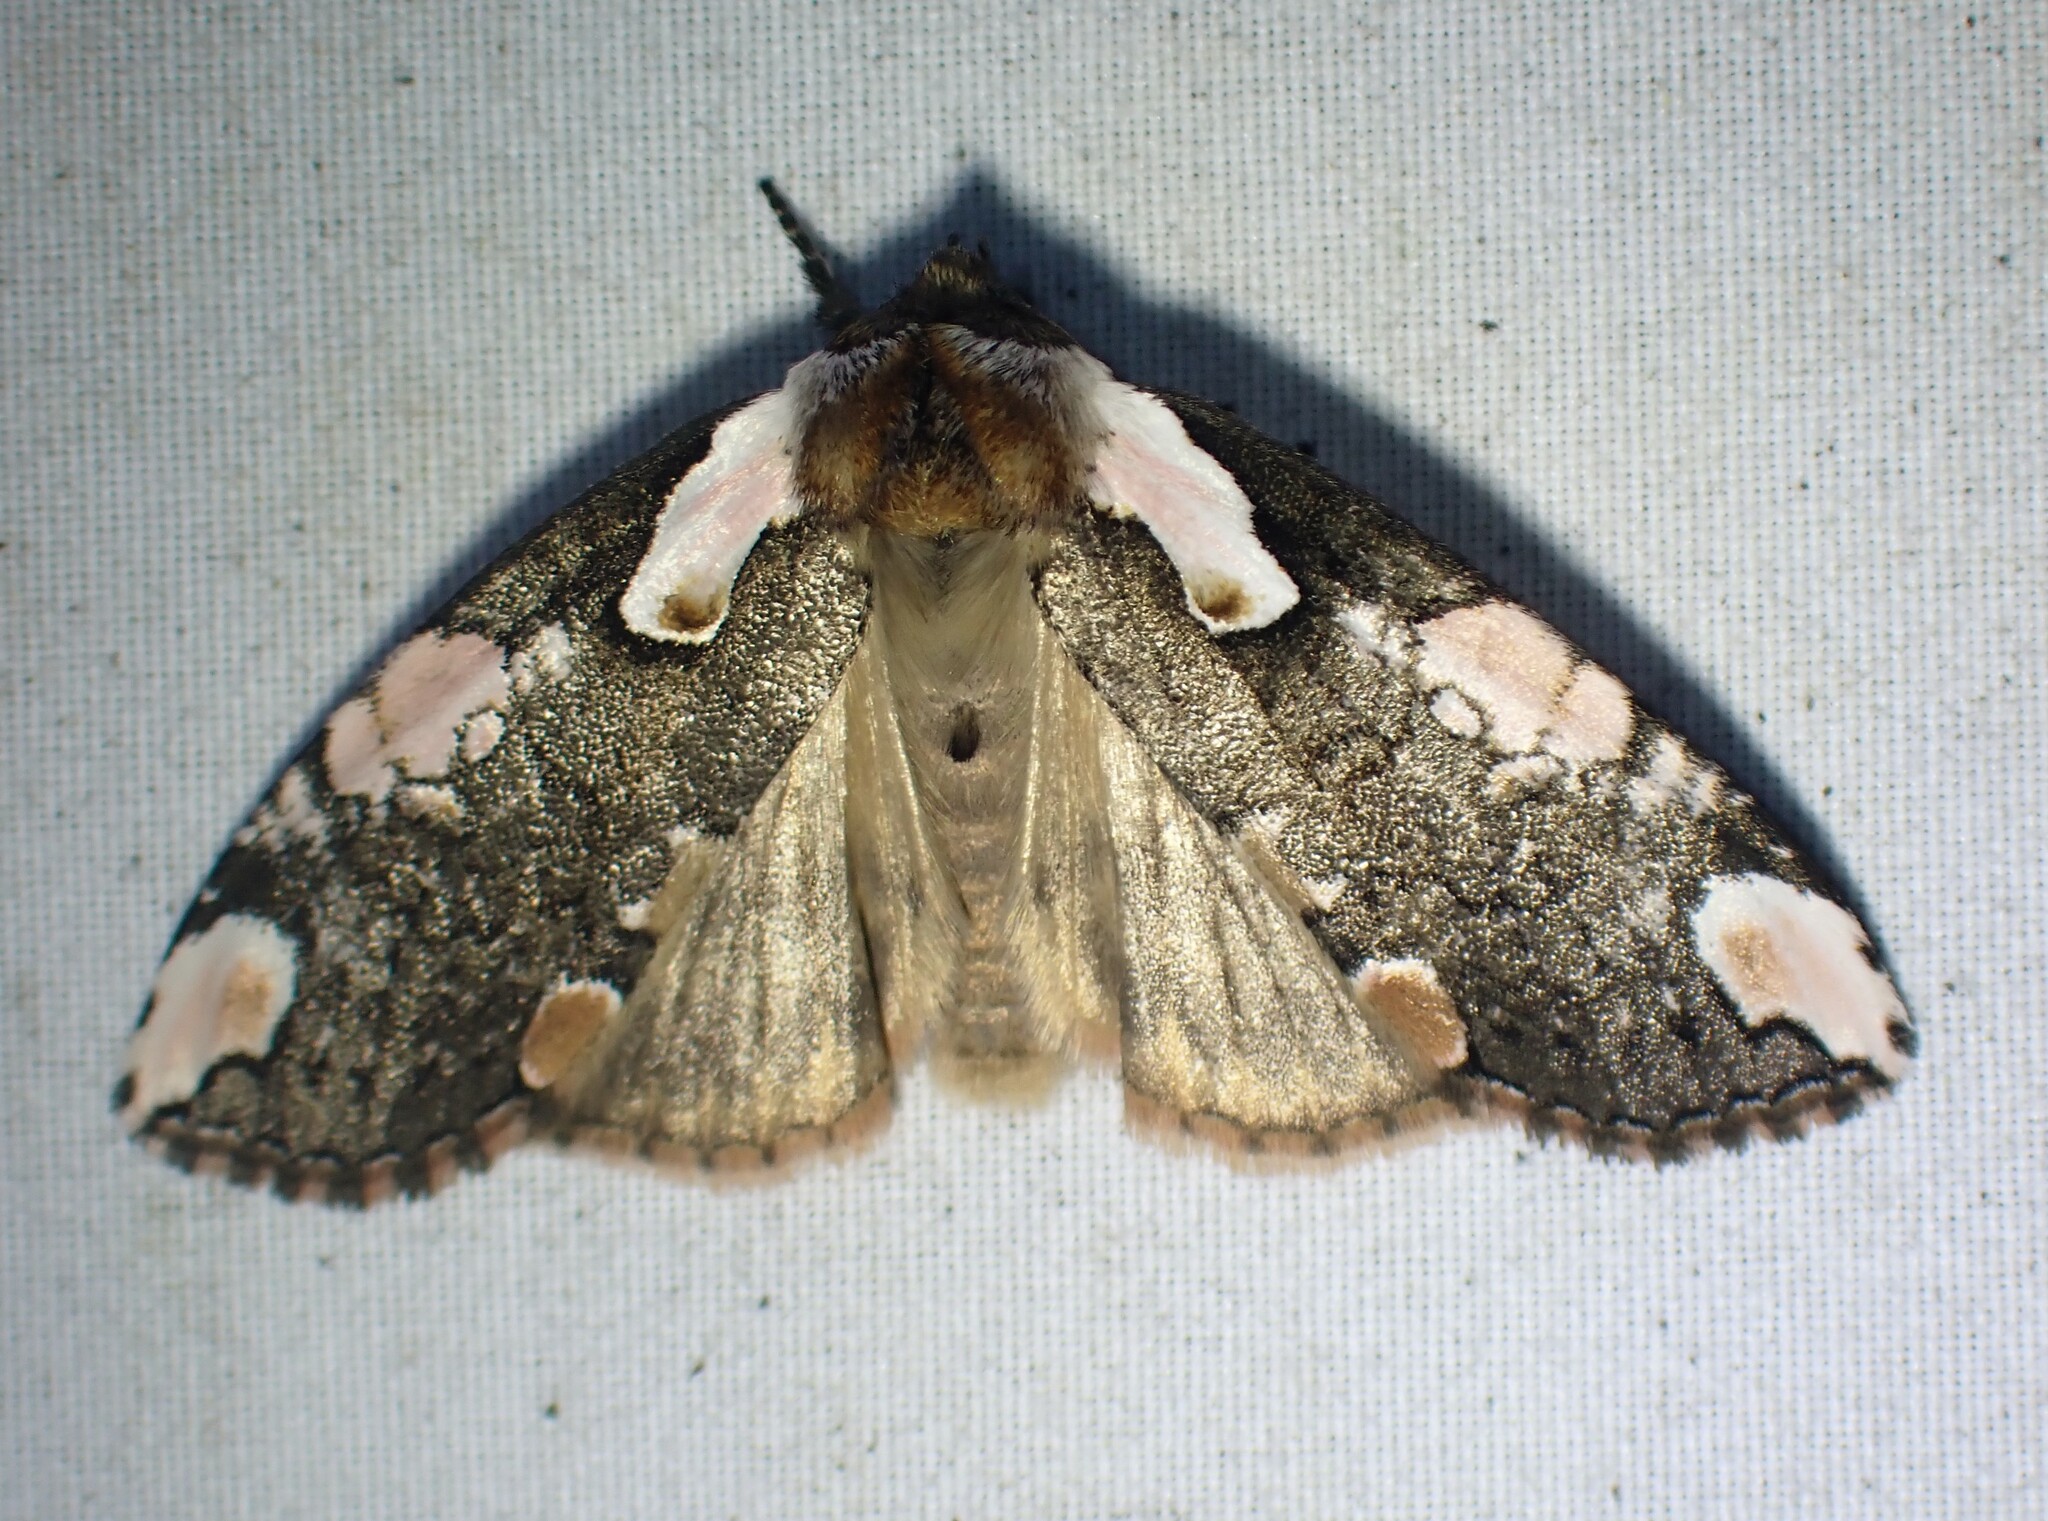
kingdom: Animalia
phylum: Arthropoda
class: Insecta
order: Lepidoptera
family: Drepanidae
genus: Euthyatira
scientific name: Euthyatira pudens
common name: Dogwood thyatirid moth
